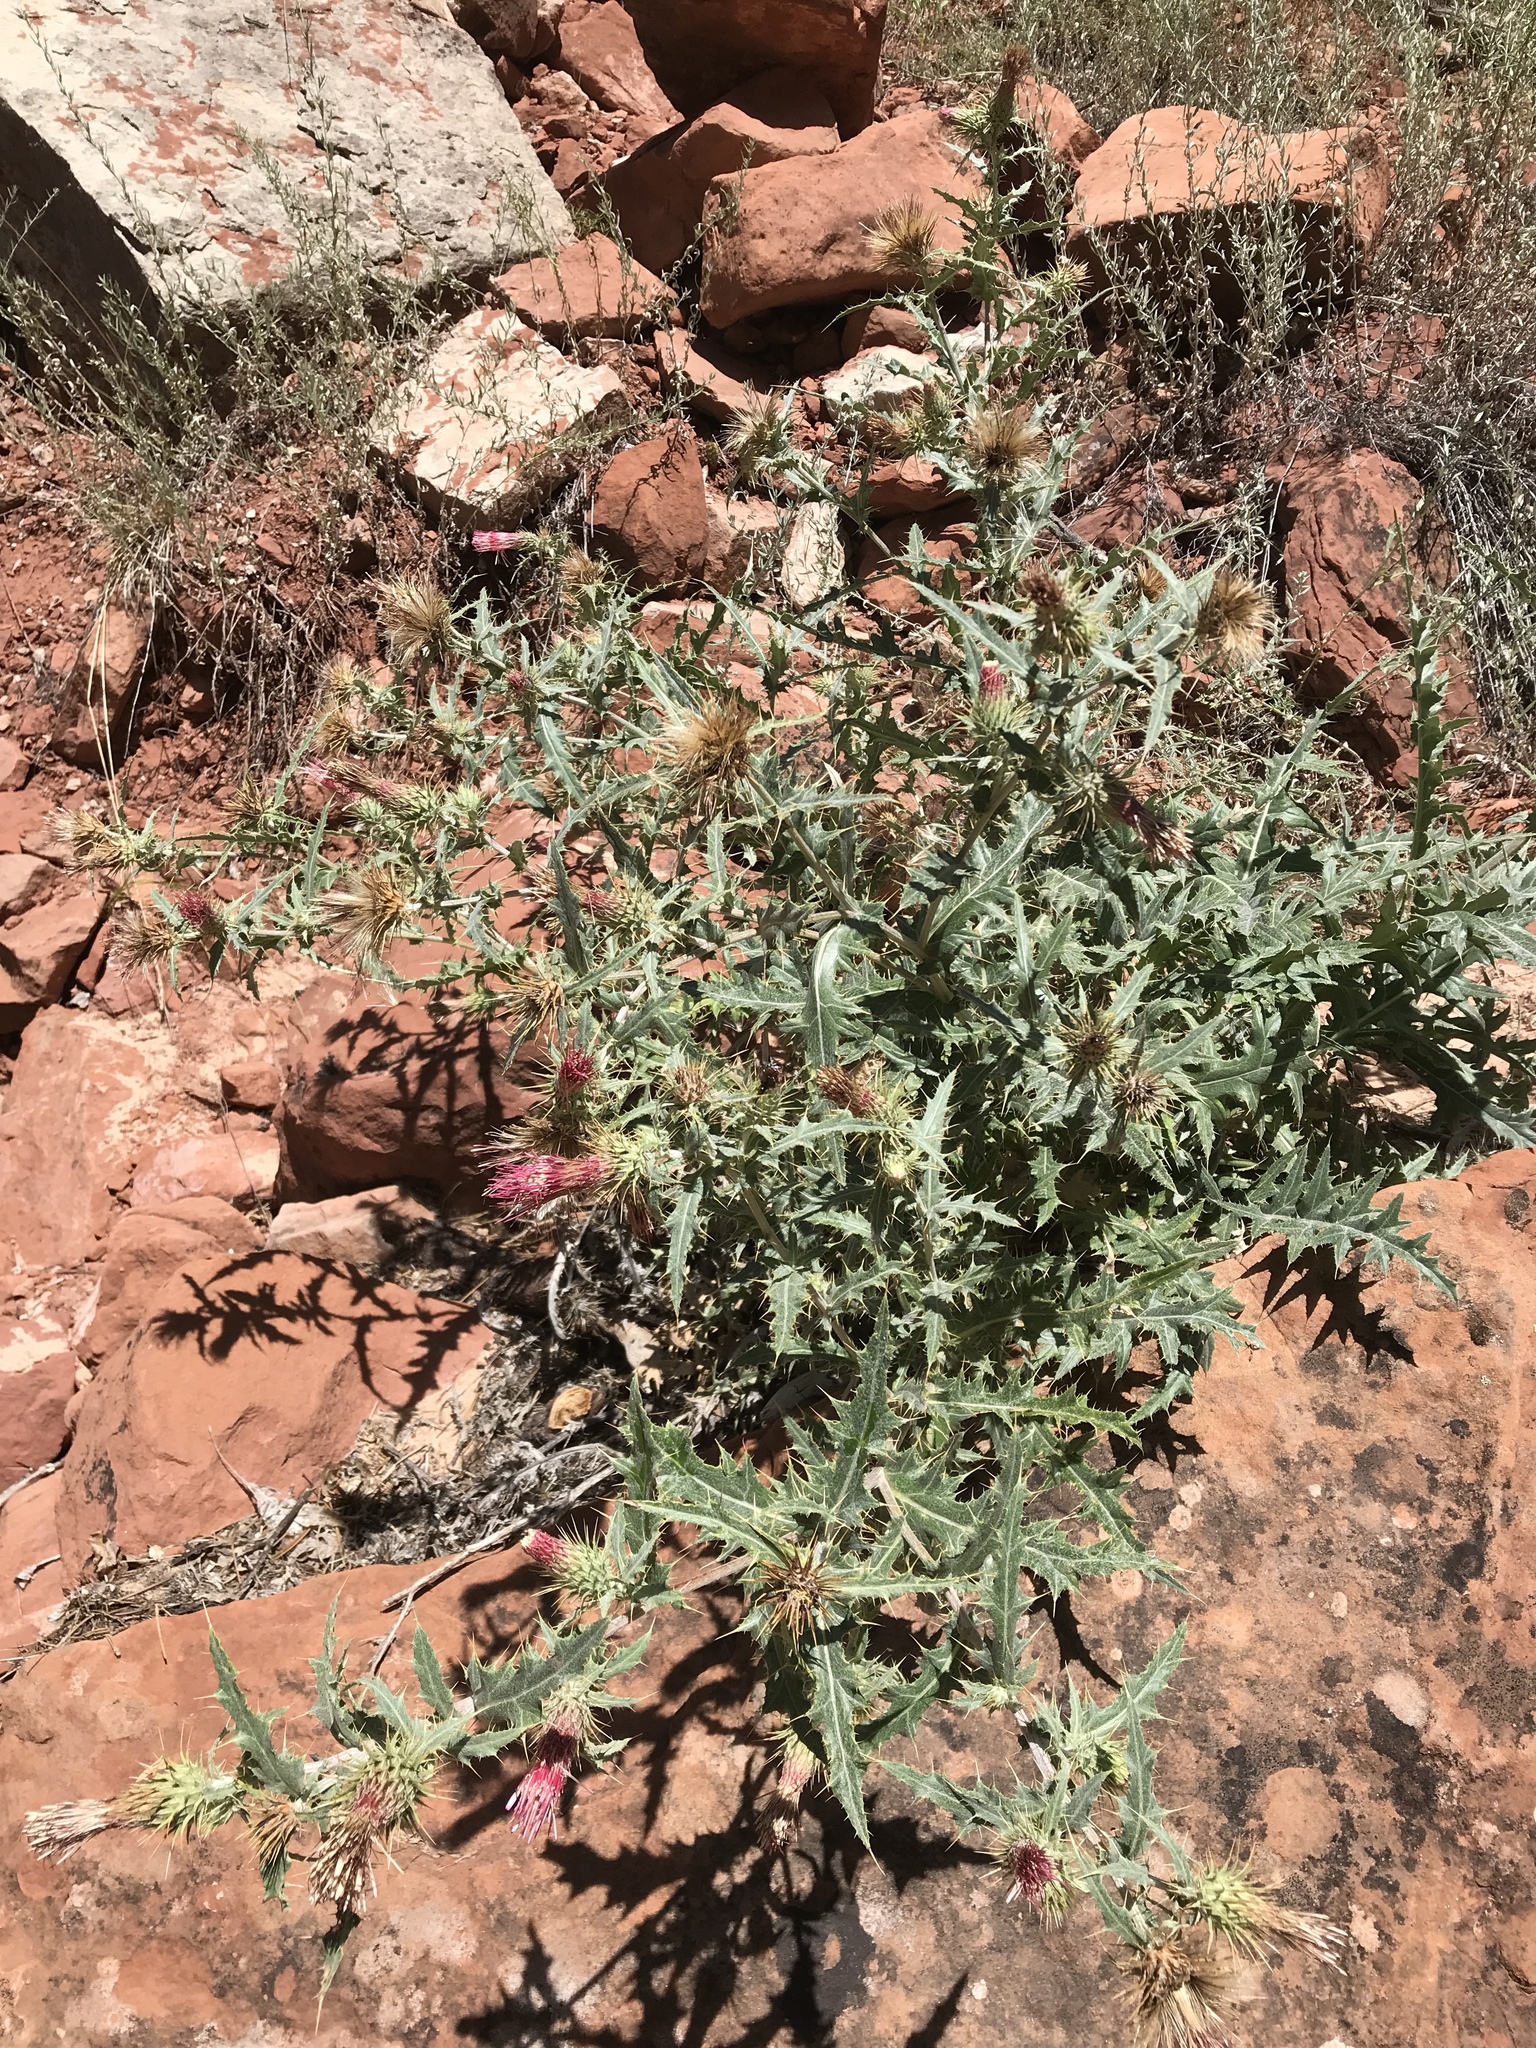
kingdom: Plantae
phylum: Tracheophyta
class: Magnoliopsida
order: Asterales
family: Asteraceae
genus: Cirsium
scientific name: Cirsium arizonicum
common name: Arizona thistle
